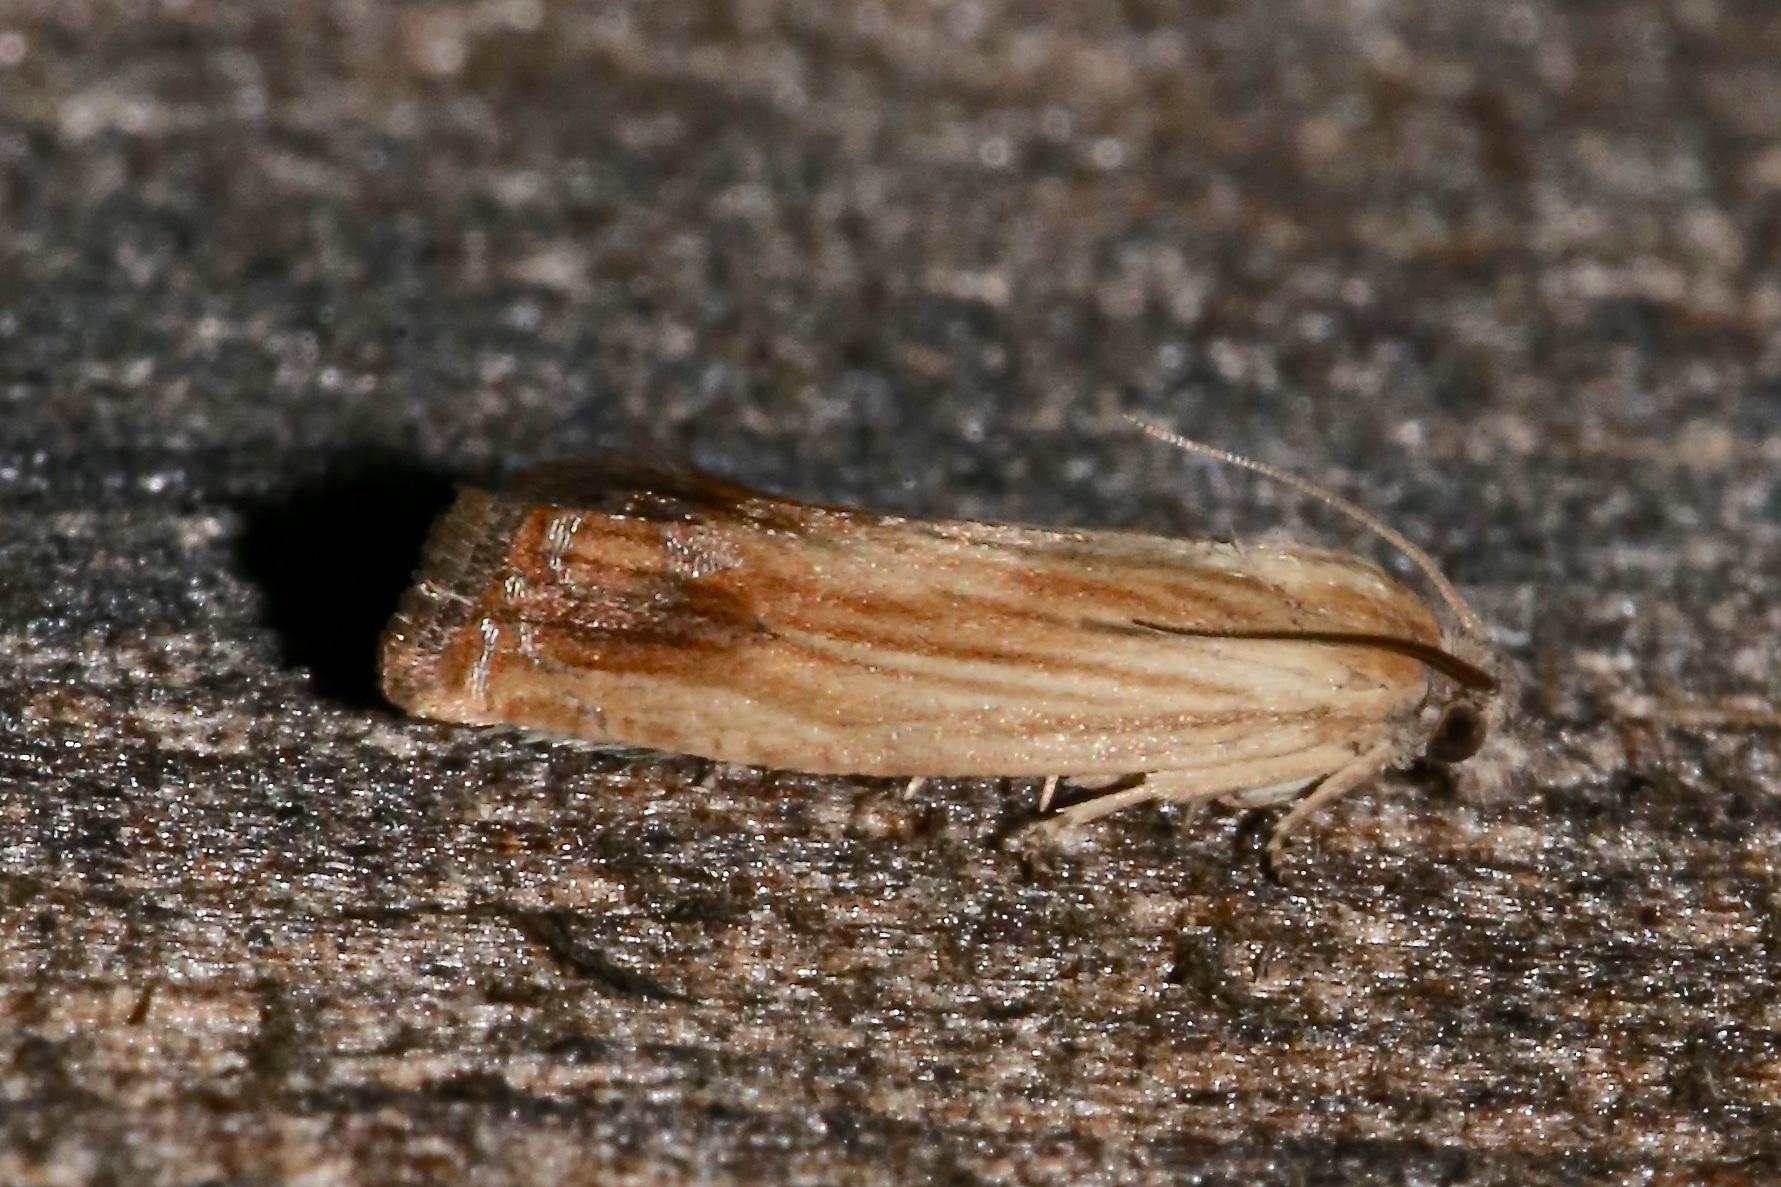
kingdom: Animalia
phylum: Arthropoda
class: Insecta
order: Lepidoptera
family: Tortricidae
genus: Eucosma
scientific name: Eucosma umbrastriana
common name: Smoky-striped eucosoma
